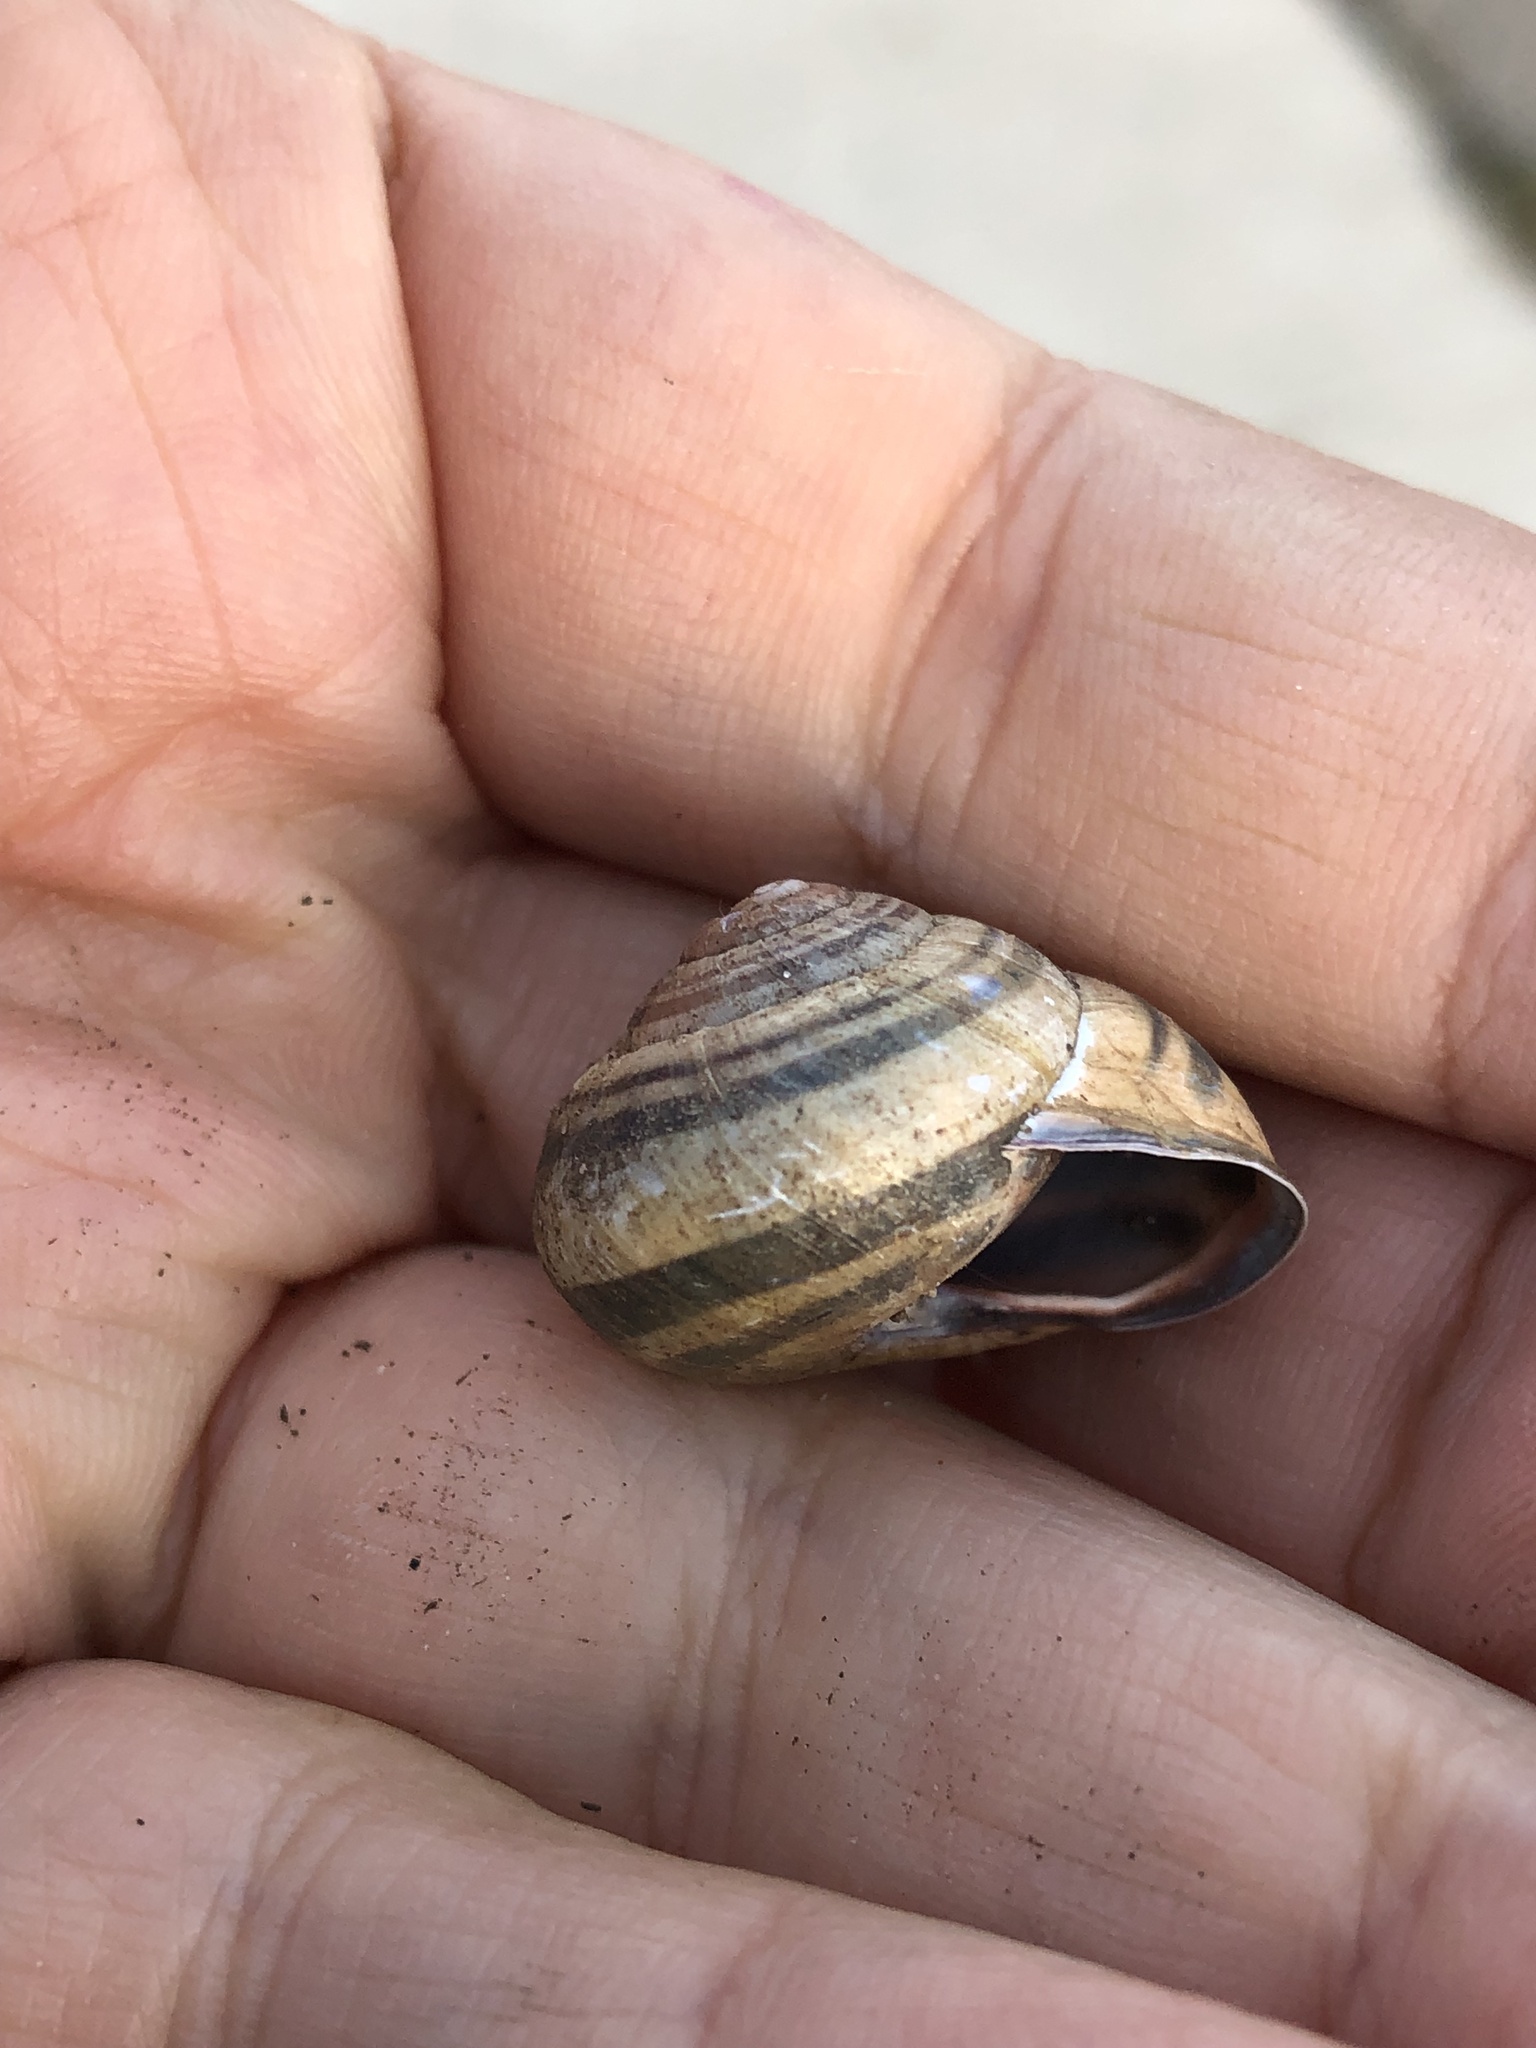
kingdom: Animalia
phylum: Mollusca
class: Gastropoda
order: Stylommatophora
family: Helicidae
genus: Cepaea
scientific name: Cepaea nemoralis
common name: Grovesnail
